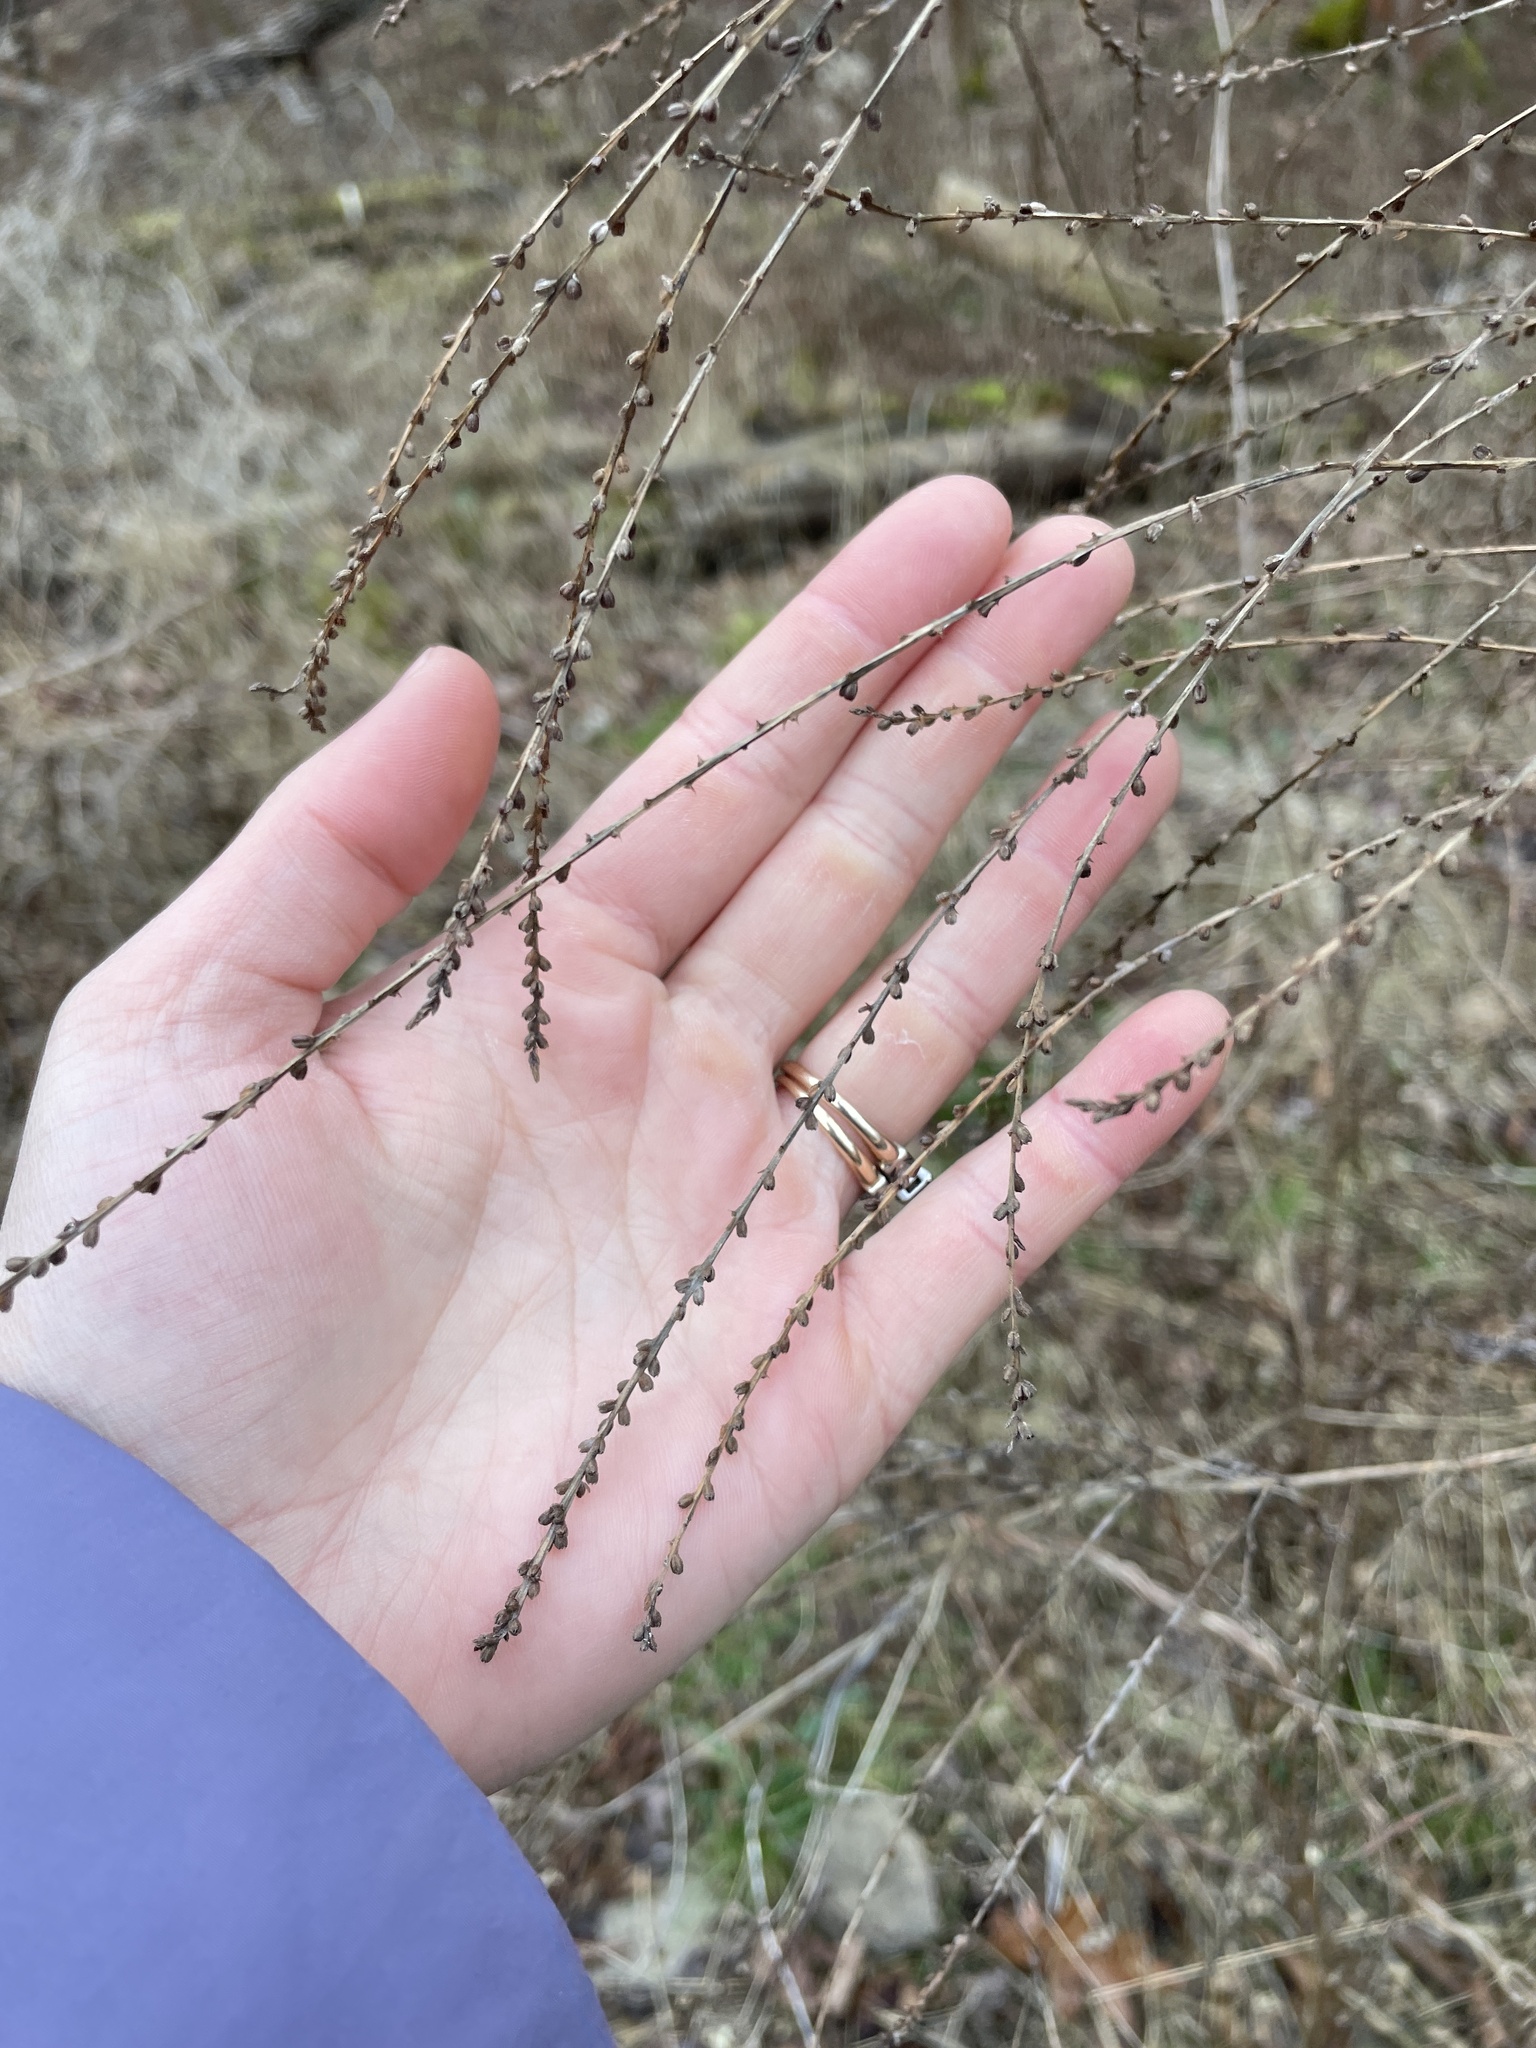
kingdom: Plantae
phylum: Tracheophyta
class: Magnoliopsida
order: Lamiales
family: Verbenaceae
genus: Verbena
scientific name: Verbena urticifolia
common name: Nettle-leaved vervain
